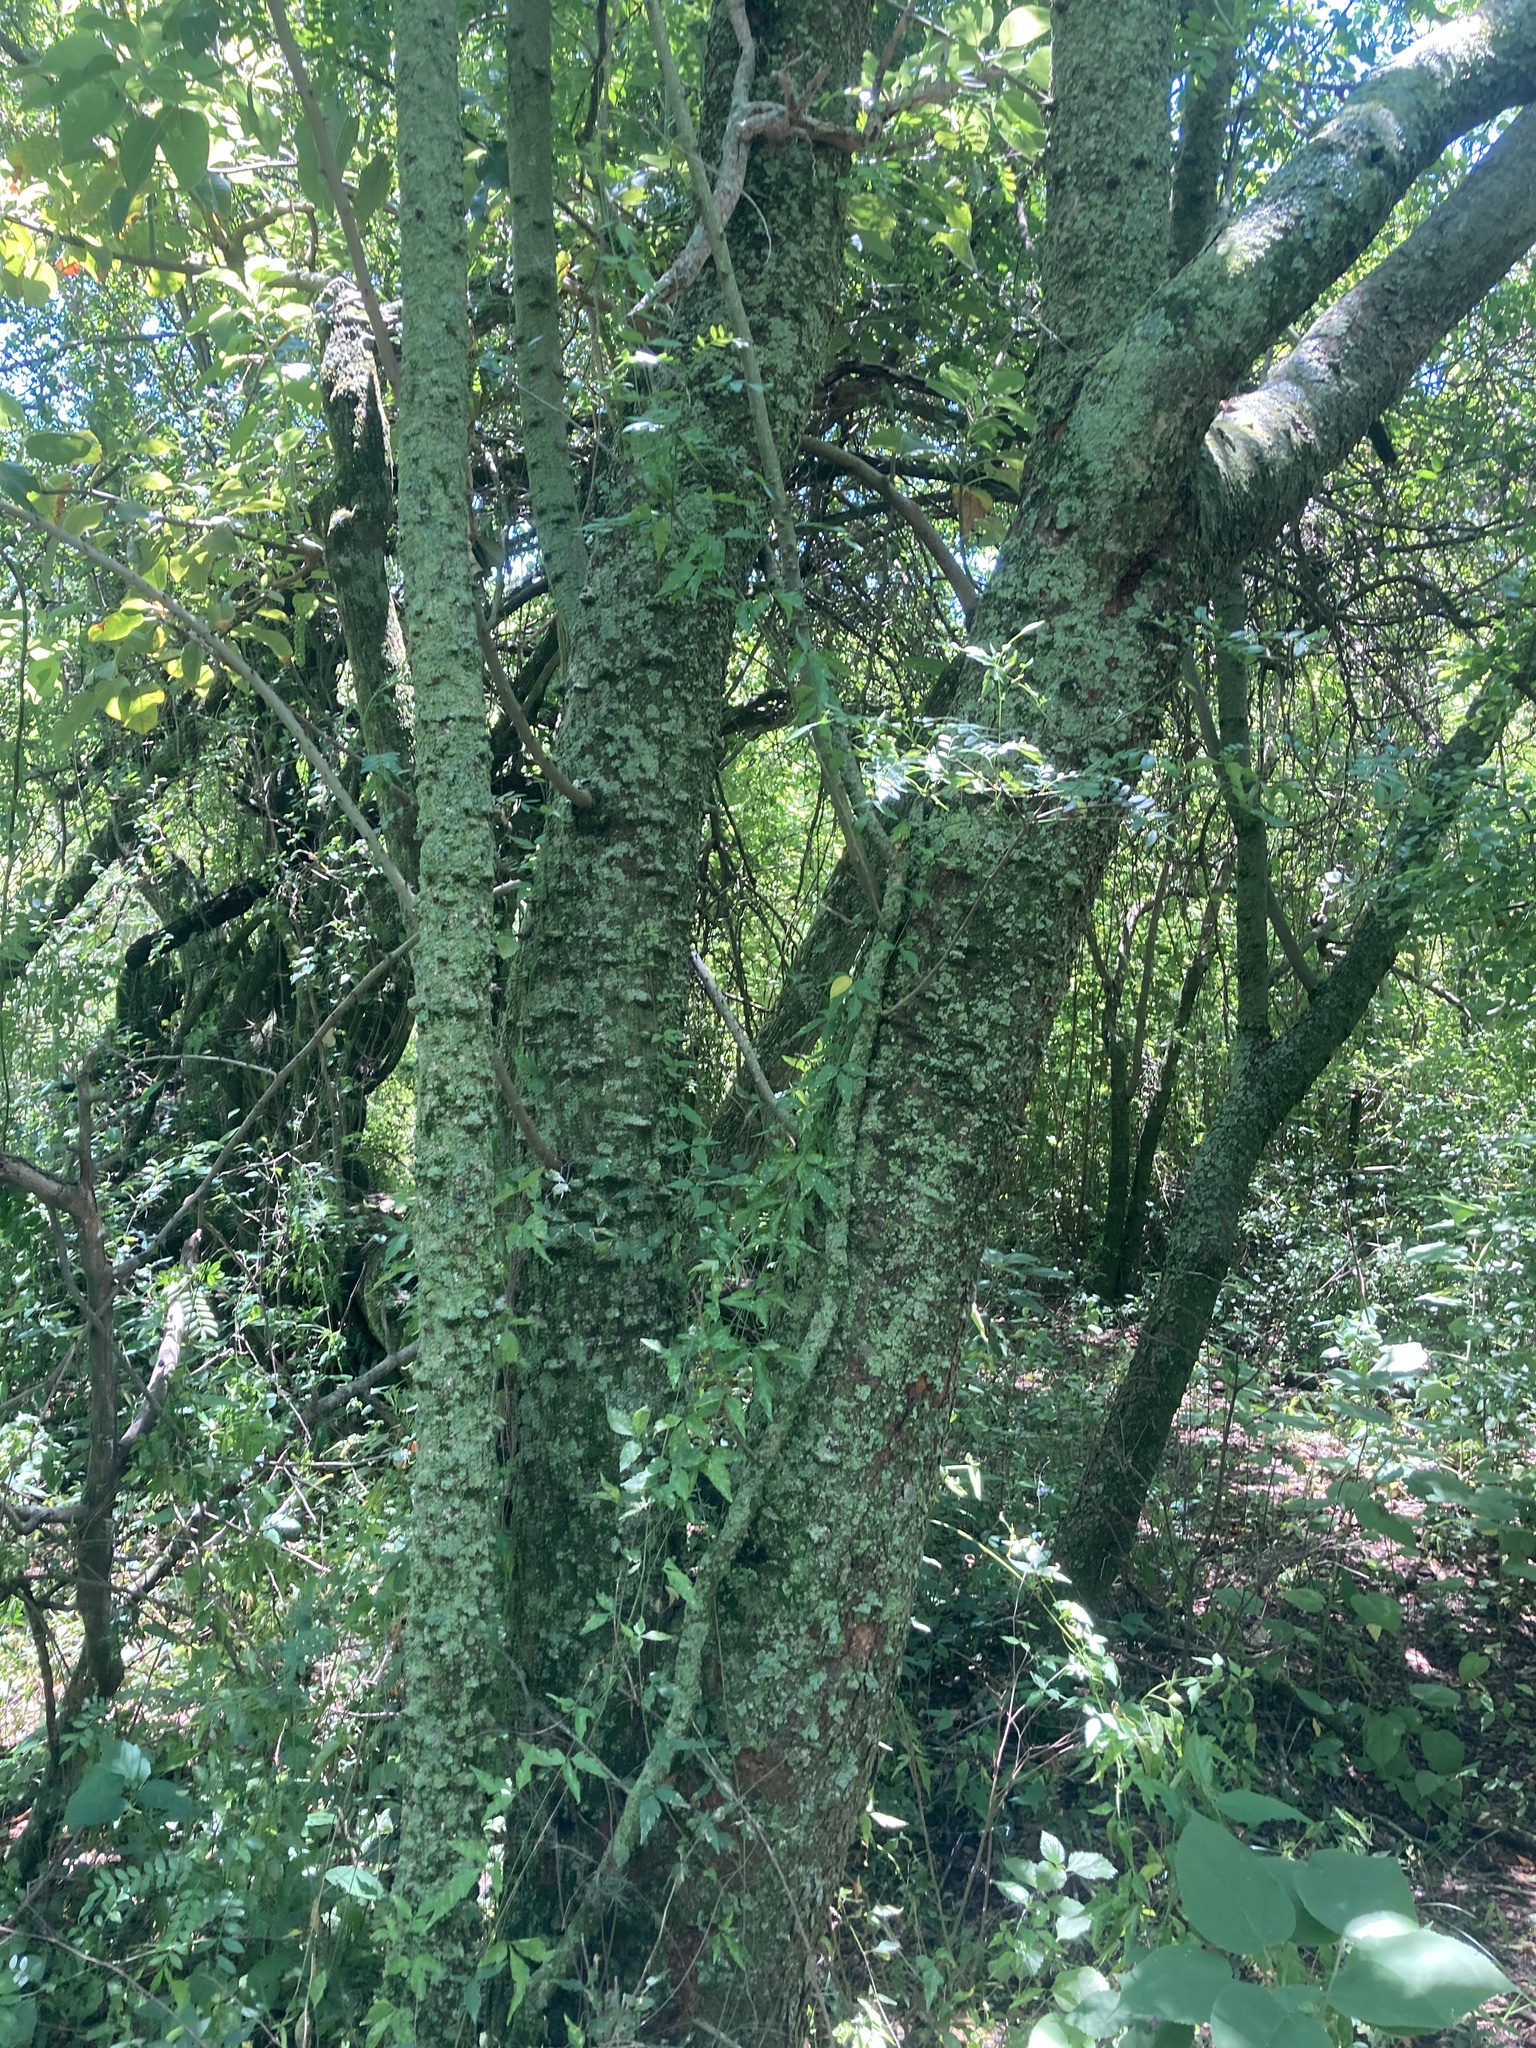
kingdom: Plantae
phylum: Tracheophyta
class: Magnoliopsida
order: Sapindales
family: Rutaceae
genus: Zanthoxylum
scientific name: Zanthoxylum fagara
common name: Lime prickly-ash
